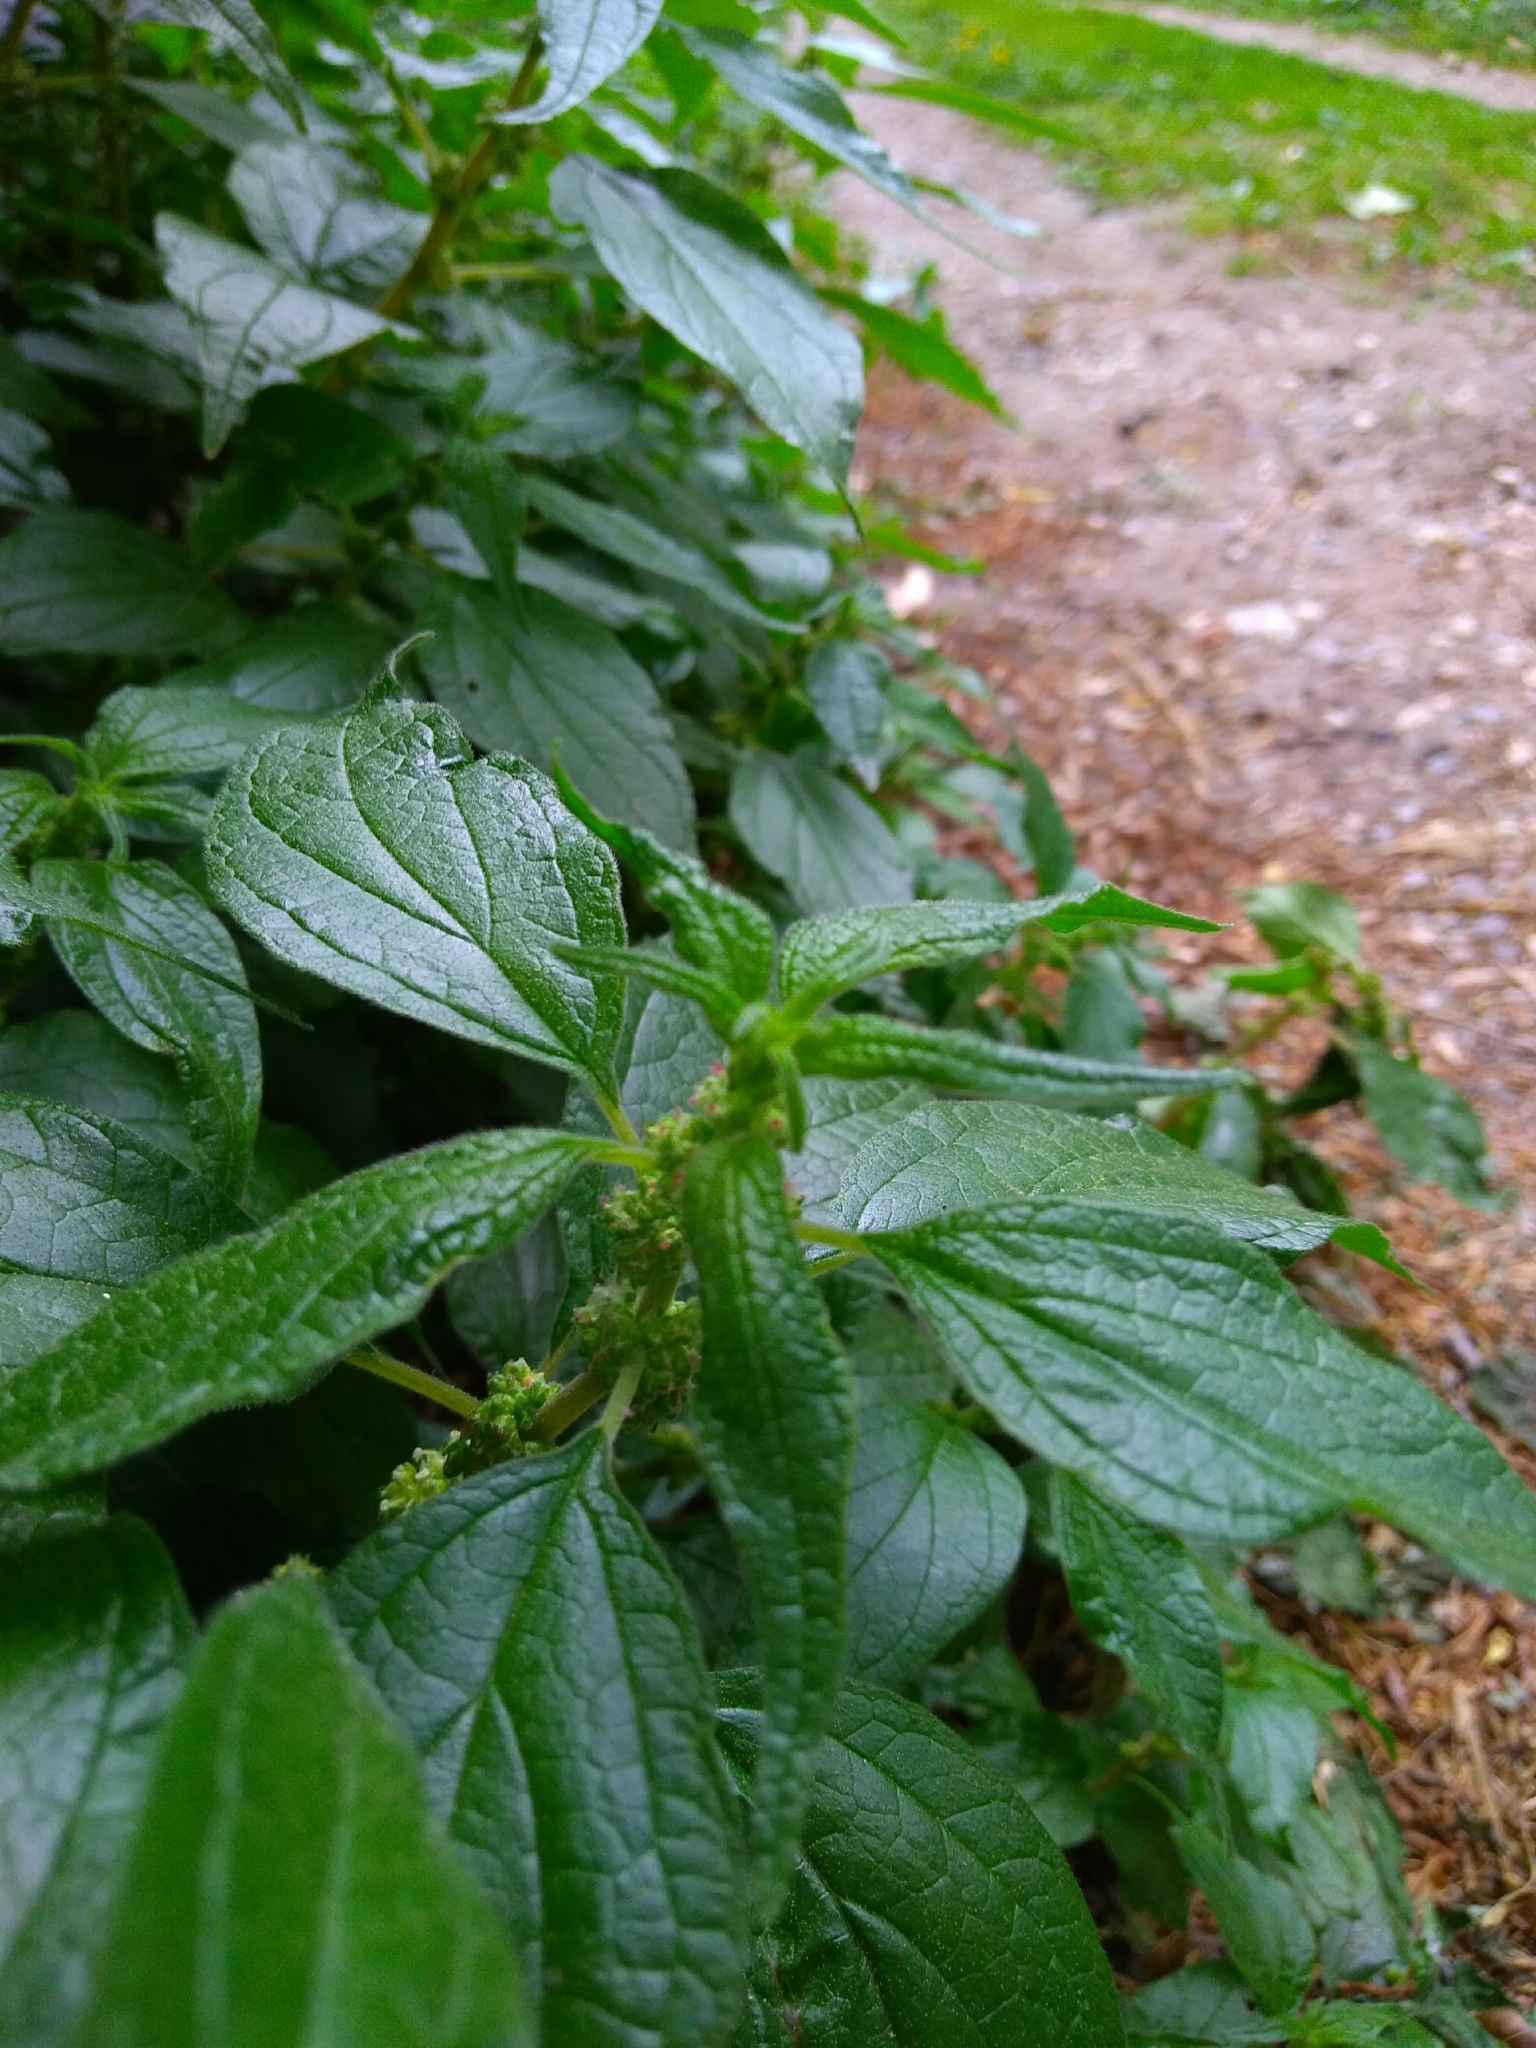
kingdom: Plantae
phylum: Tracheophyta
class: Magnoliopsida
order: Rosales
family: Urticaceae
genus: Parietaria
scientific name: Parietaria officinalis
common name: Eastern pellitory-of-the-wall
